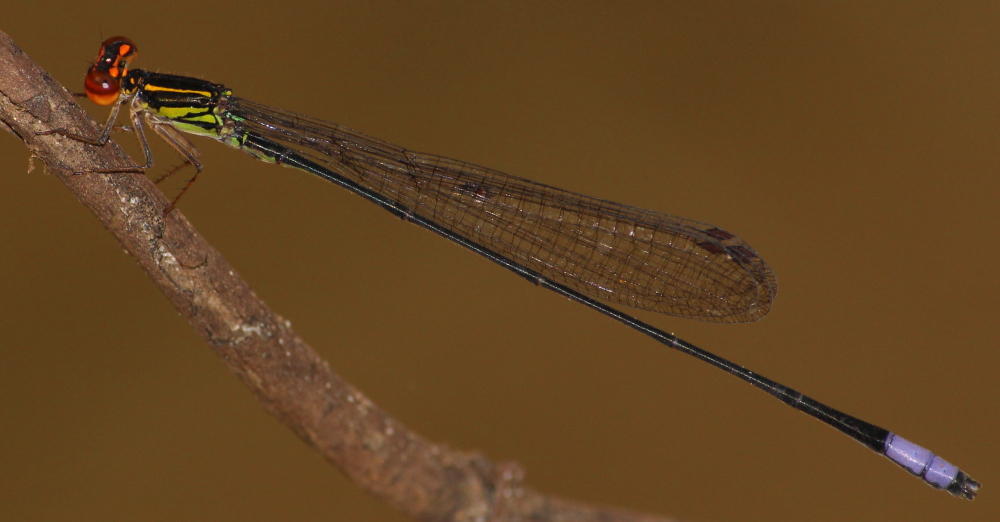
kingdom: Animalia
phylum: Arthropoda
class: Insecta
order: Odonata
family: Coenagrionidae
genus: Pseudagrion
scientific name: Pseudagrion hageni
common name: Painted sprite
